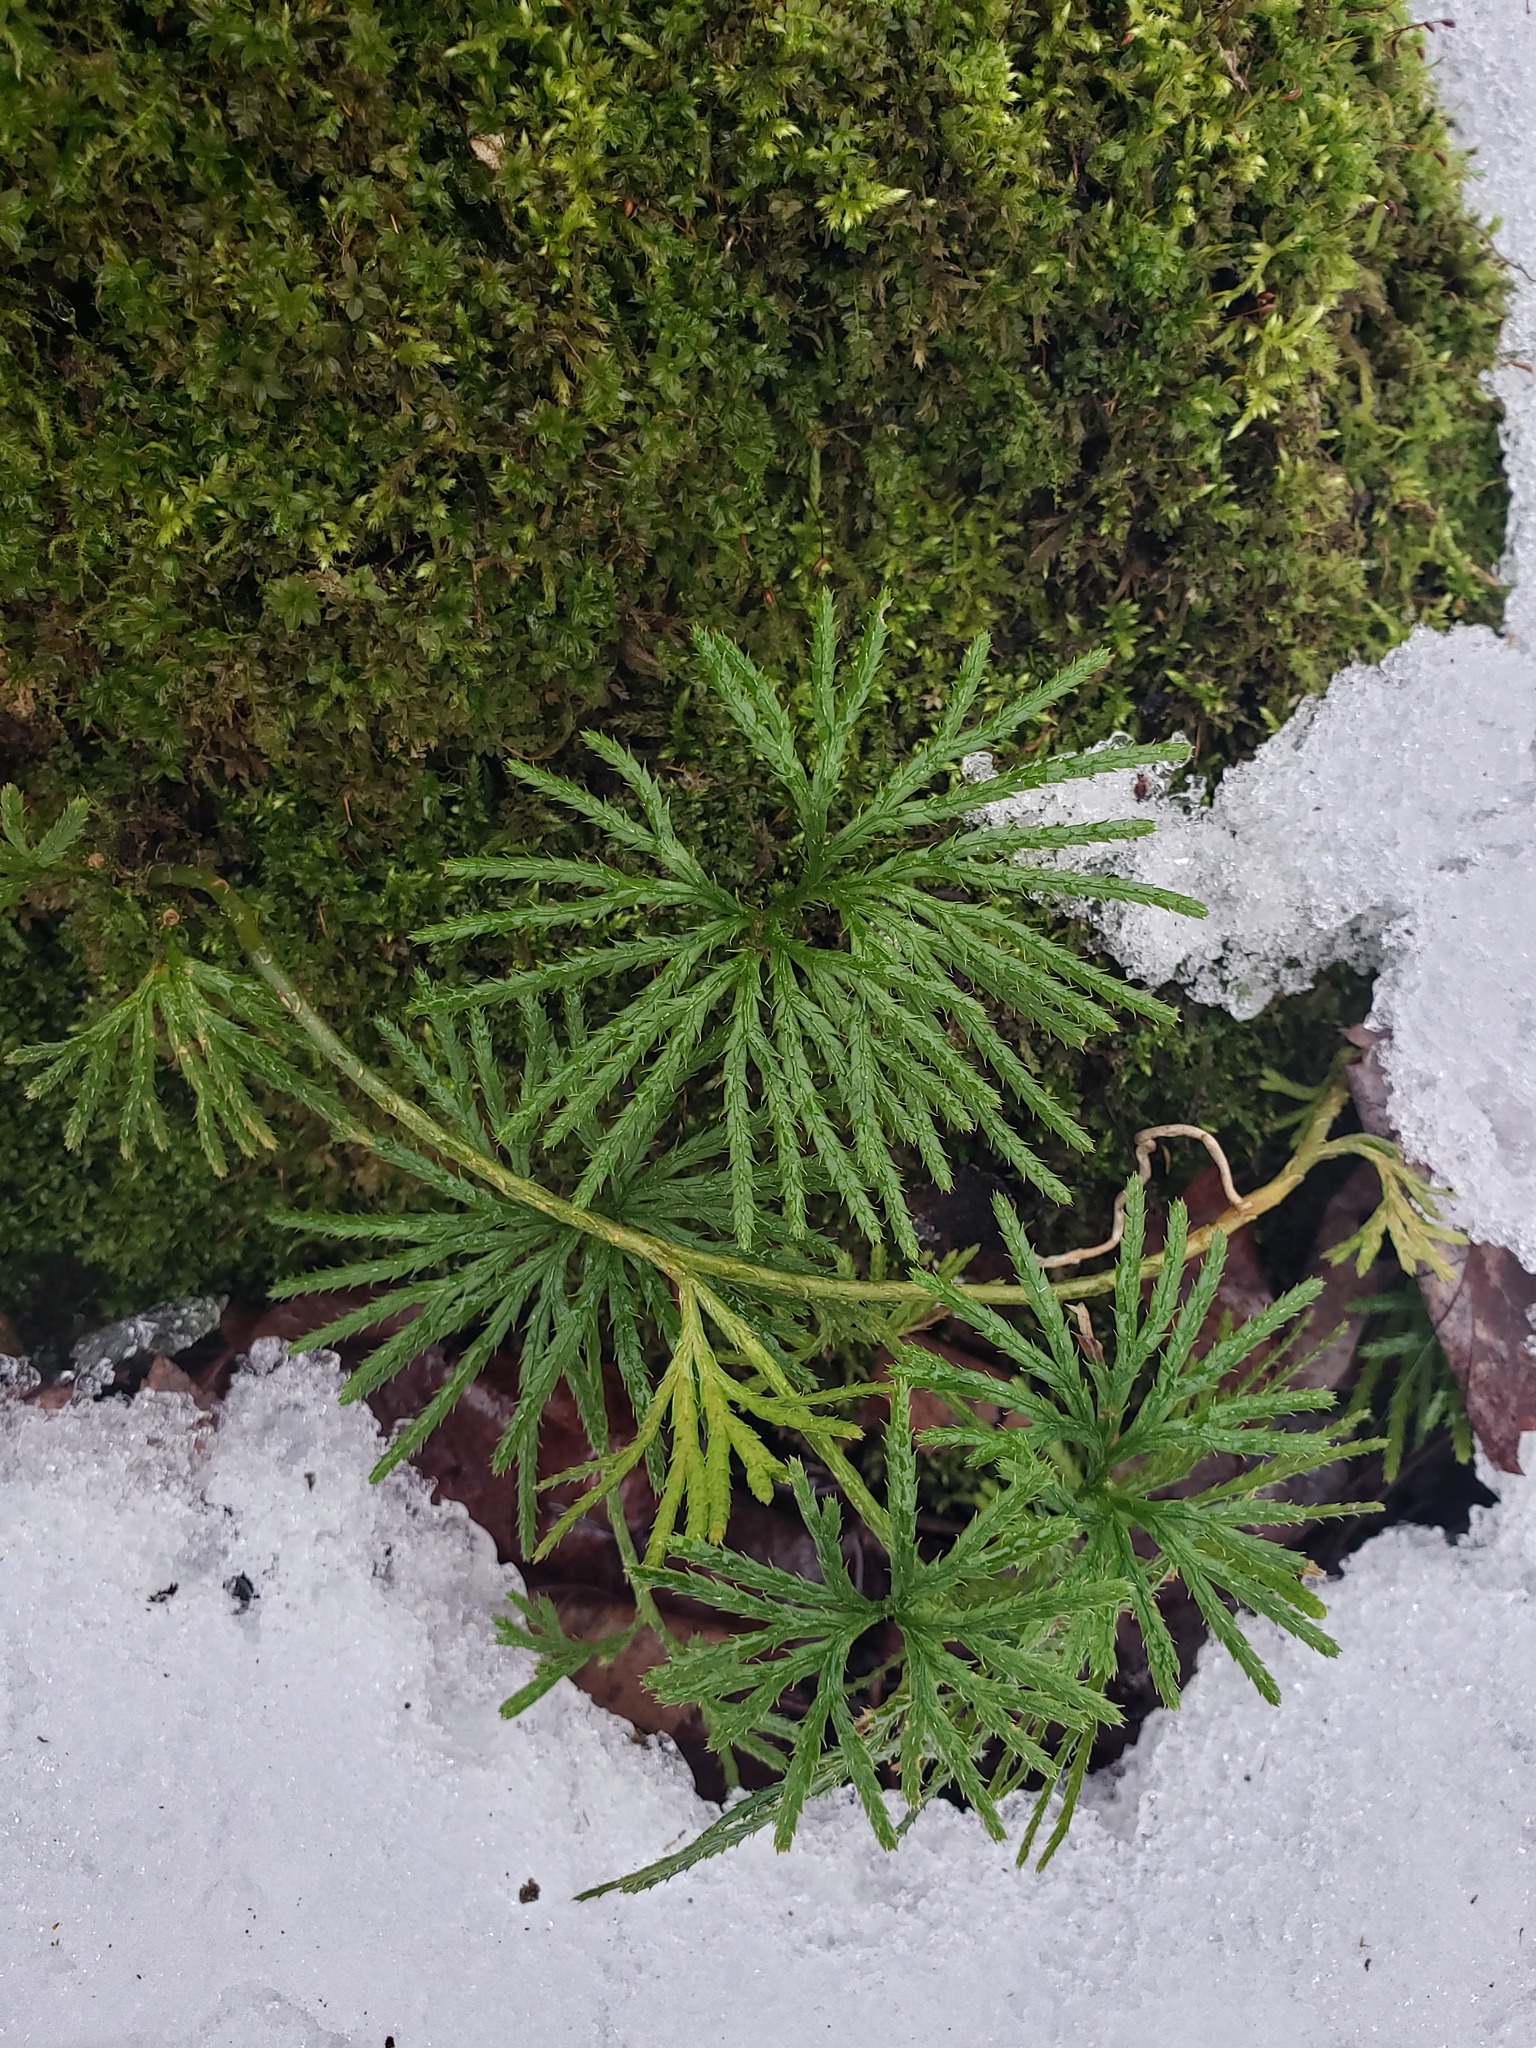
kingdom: Plantae
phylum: Tracheophyta
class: Lycopodiopsida
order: Lycopodiales
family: Lycopodiaceae
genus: Diphasiastrum
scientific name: Diphasiastrum digitatum
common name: Southern running-pine
